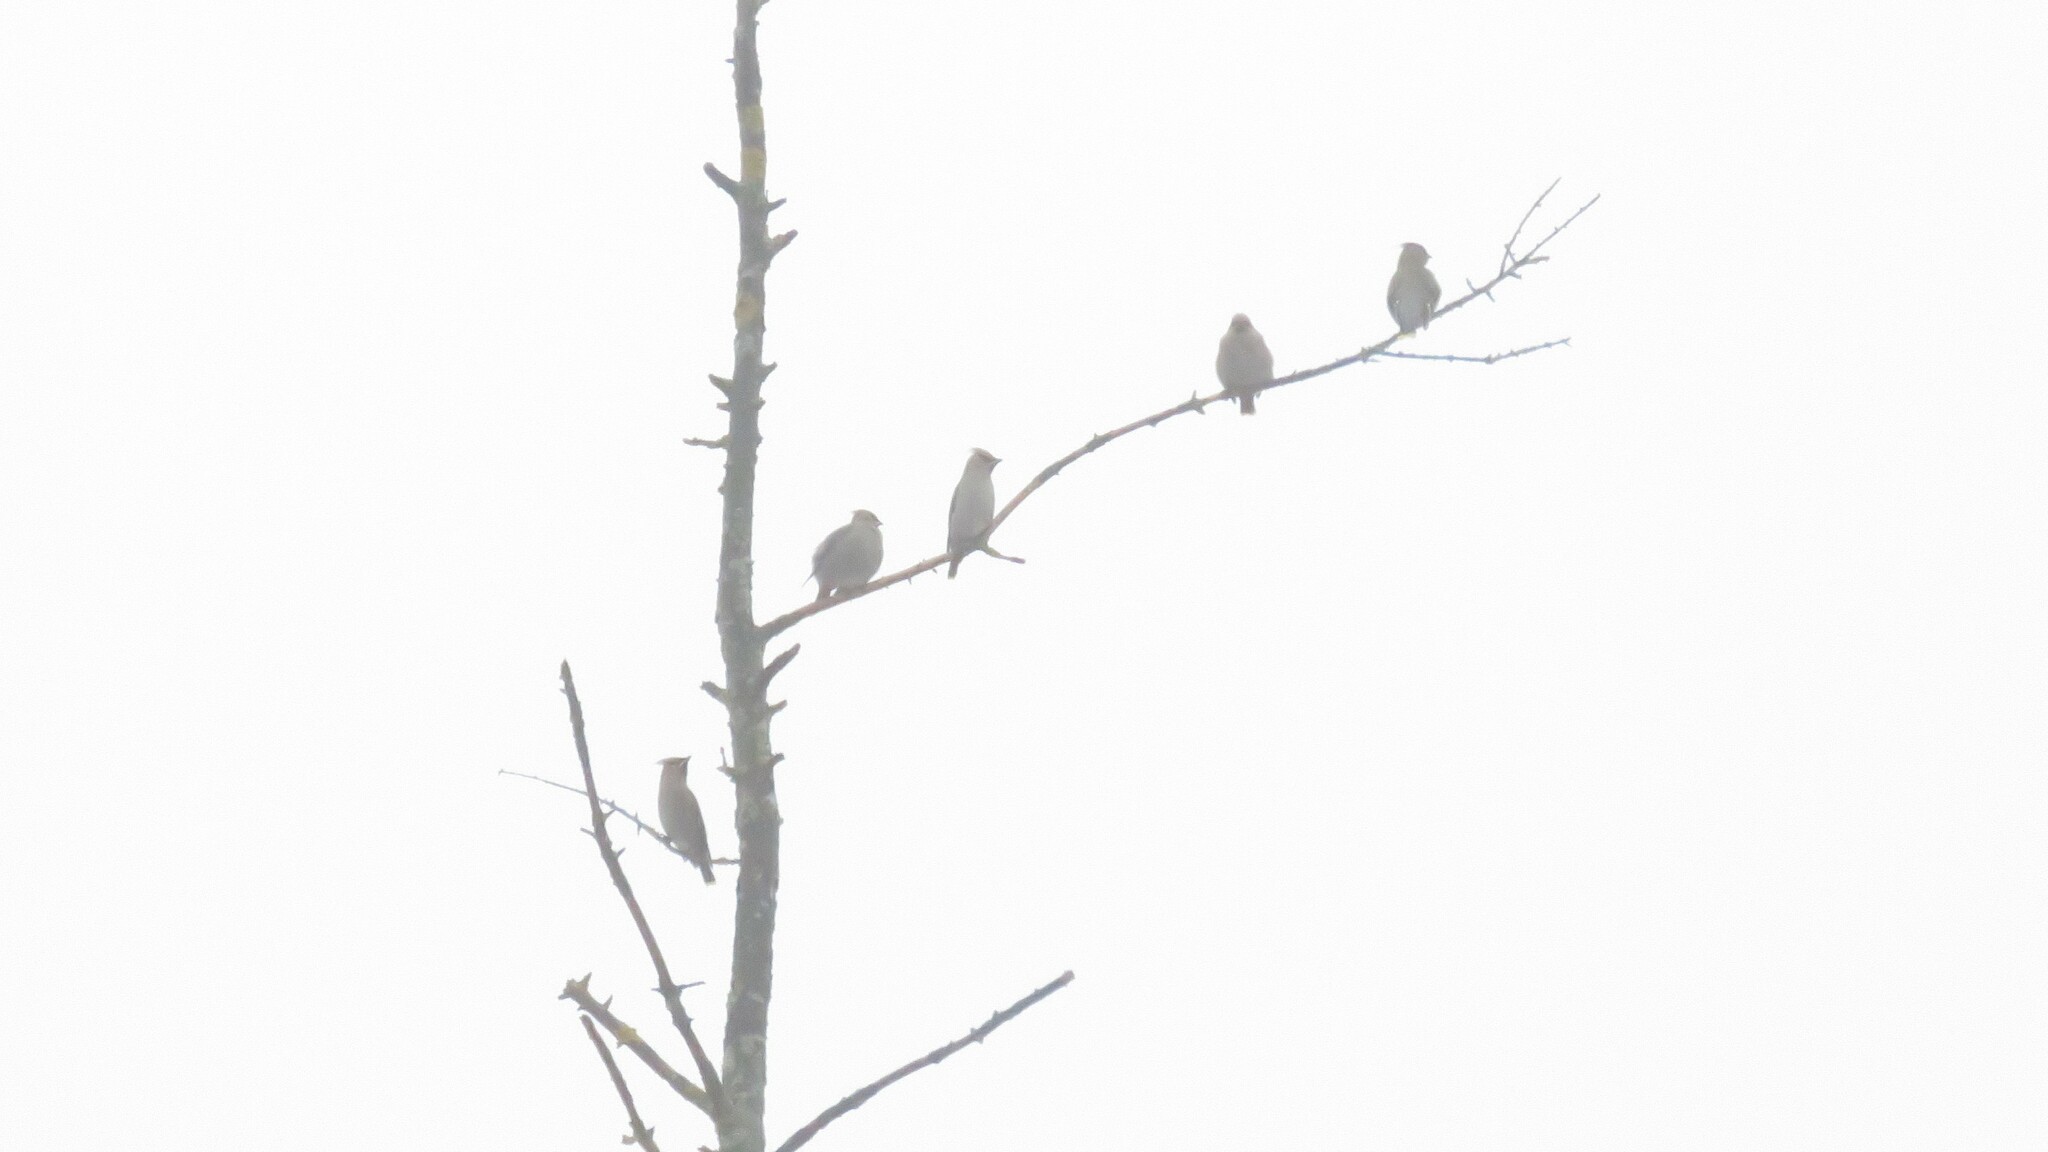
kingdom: Animalia
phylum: Chordata
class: Aves
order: Passeriformes
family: Bombycillidae
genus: Bombycilla
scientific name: Bombycilla garrulus
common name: Bohemian waxwing
